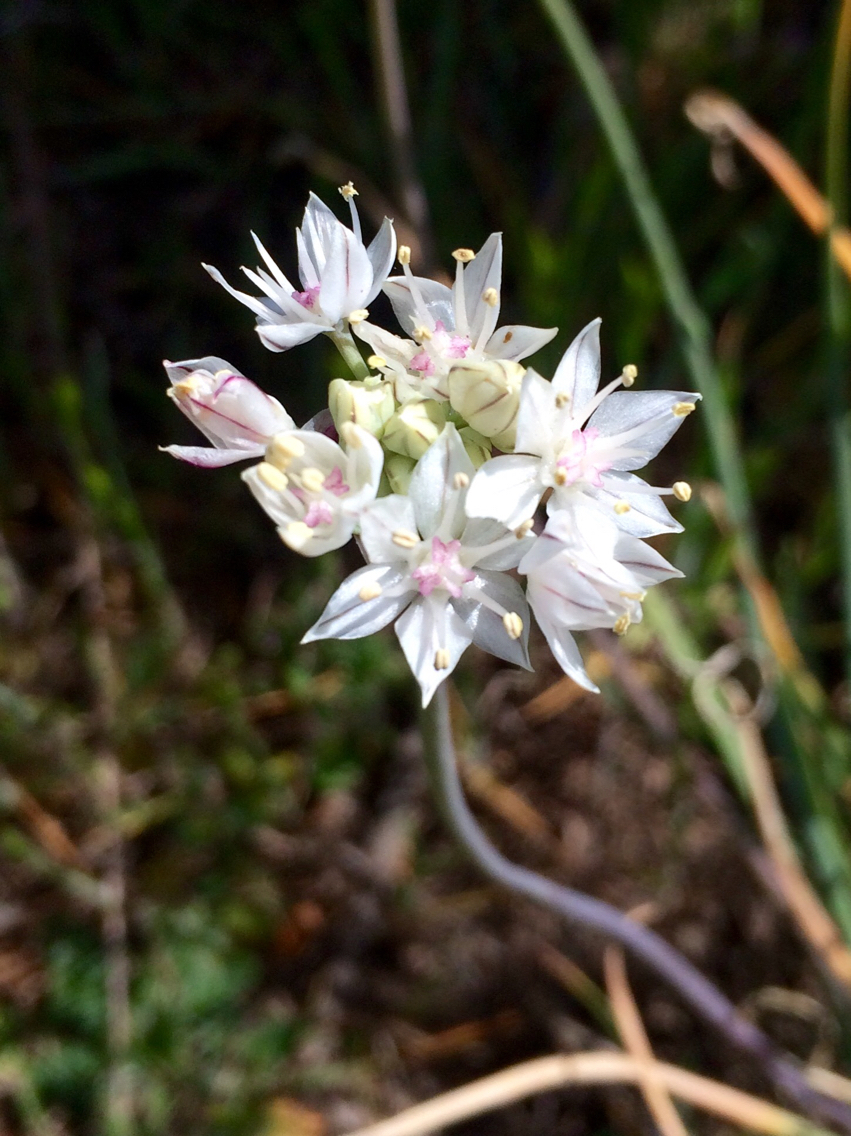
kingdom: Plantae
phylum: Tracheophyta
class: Liliopsida
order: Asparagales
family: Amaryllidaceae
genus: Allium
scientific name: Allium haematochiton
